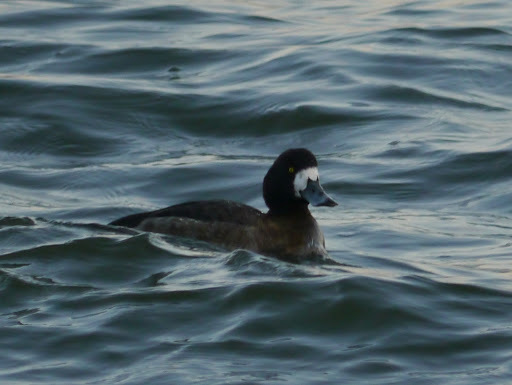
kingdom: Animalia
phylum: Chordata
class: Aves
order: Anseriformes
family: Anatidae
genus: Aythya
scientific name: Aythya marila
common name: Greater scaup
